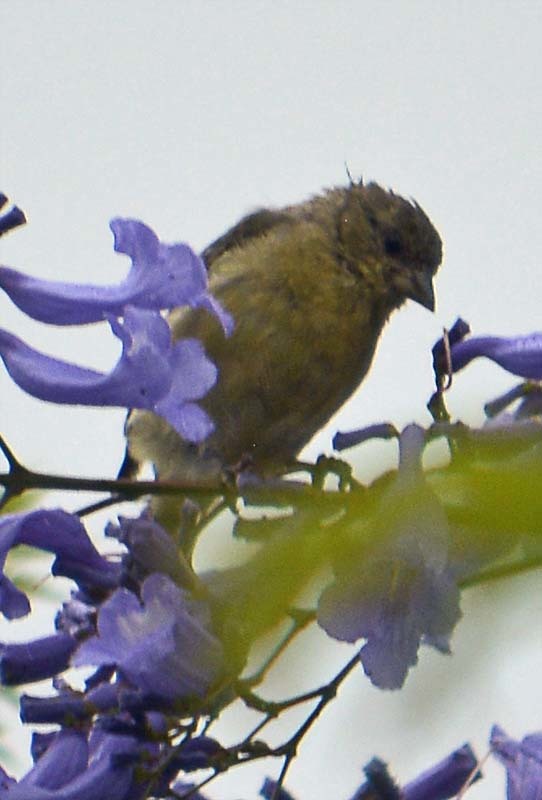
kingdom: Animalia
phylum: Chordata
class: Aves
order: Passeriformes
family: Fringillidae
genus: Spinus
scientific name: Spinus psaltria
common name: Lesser goldfinch
